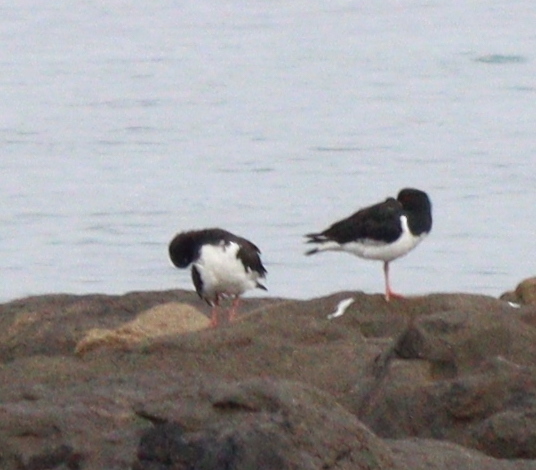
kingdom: Animalia
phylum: Chordata
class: Aves
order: Charadriiformes
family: Haematopodidae
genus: Haematopus
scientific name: Haematopus ostralegus
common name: Eurasian oystercatcher
